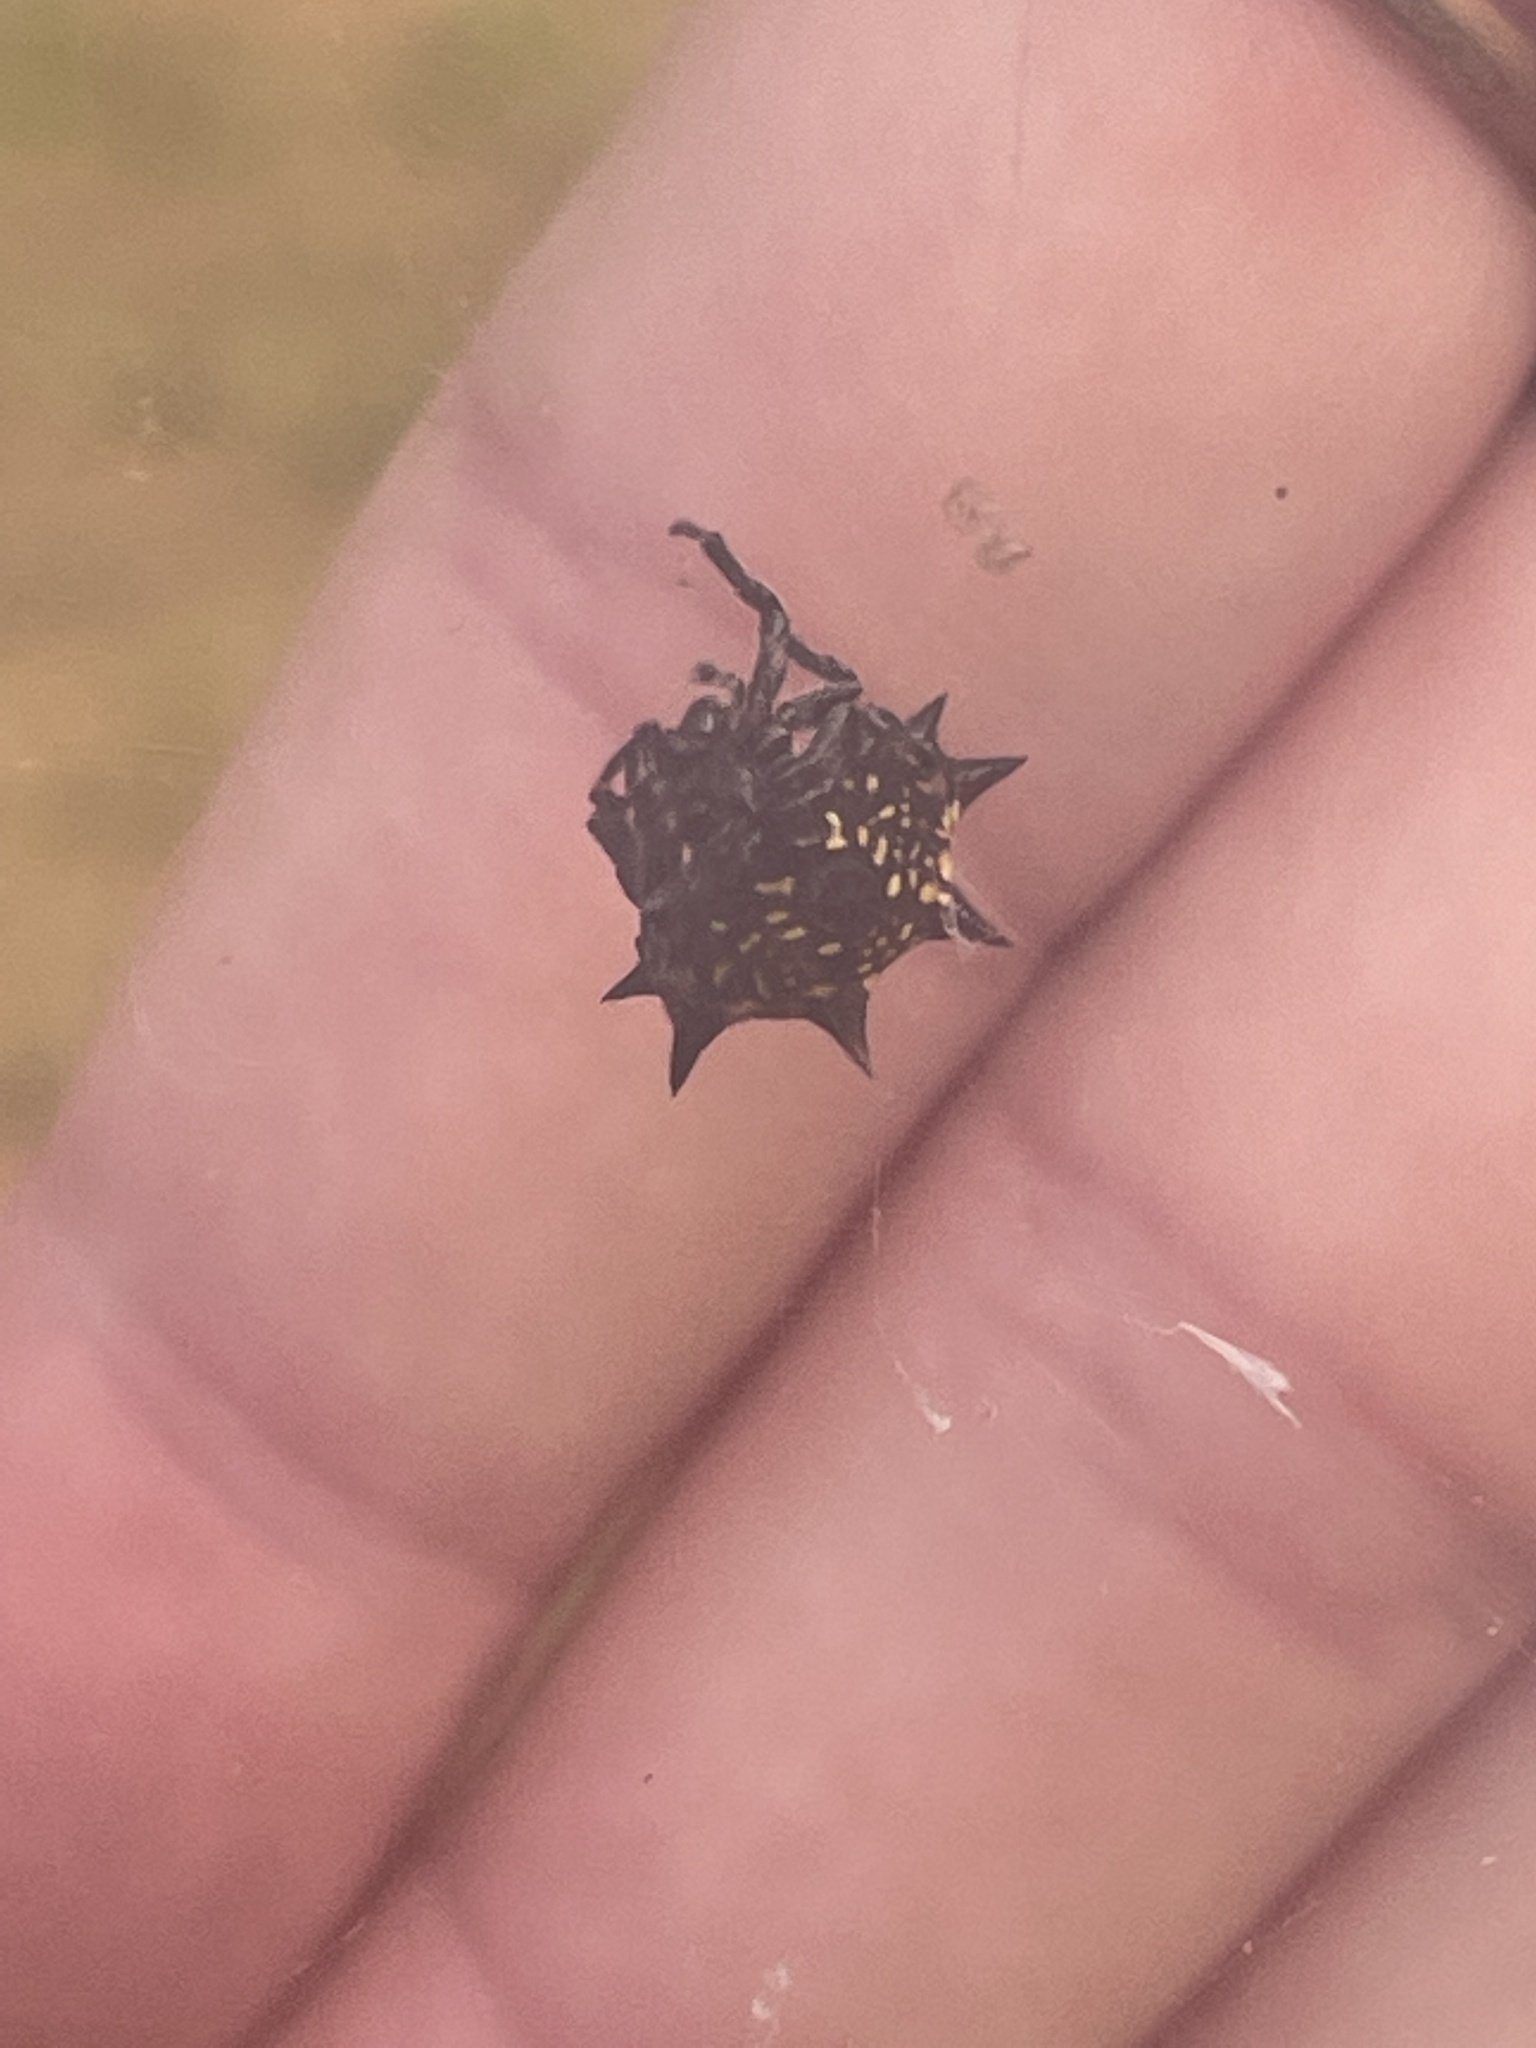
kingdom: Animalia
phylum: Arthropoda
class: Arachnida
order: Araneae
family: Araneidae
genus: Gasteracantha
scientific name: Gasteracantha cancriformis
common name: Orb weavers
